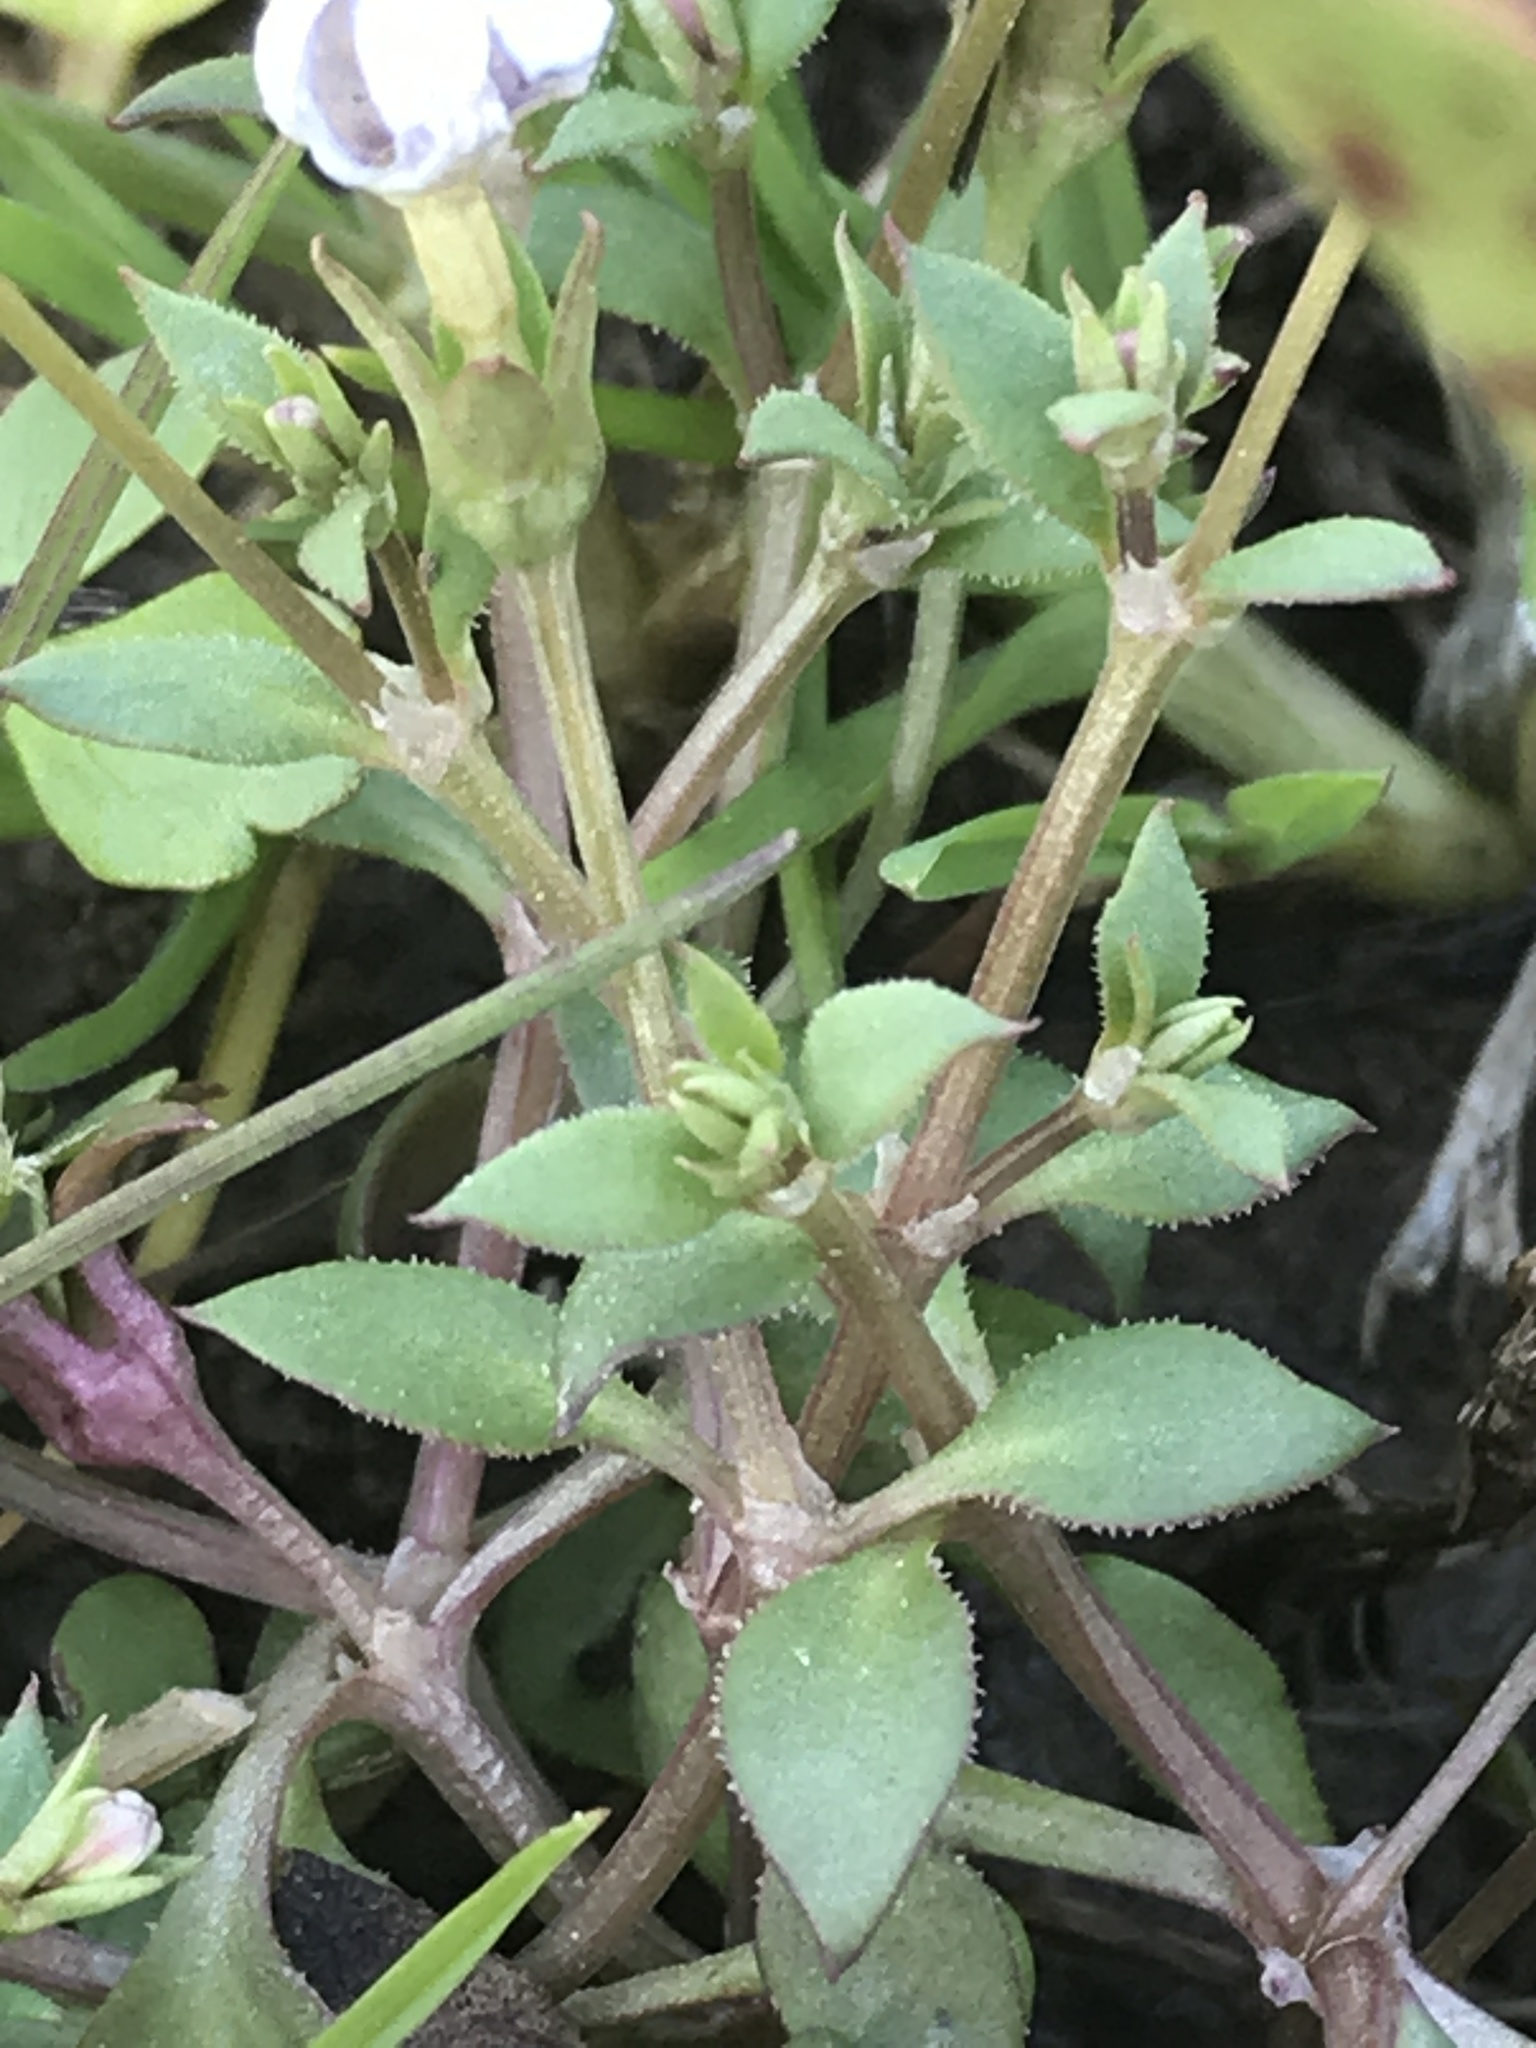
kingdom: Plantae
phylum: Tracheophyta
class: Magnoliopsida
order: Gentianales
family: Rubiaceae
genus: Houstonia
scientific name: Houstonia pusilla
